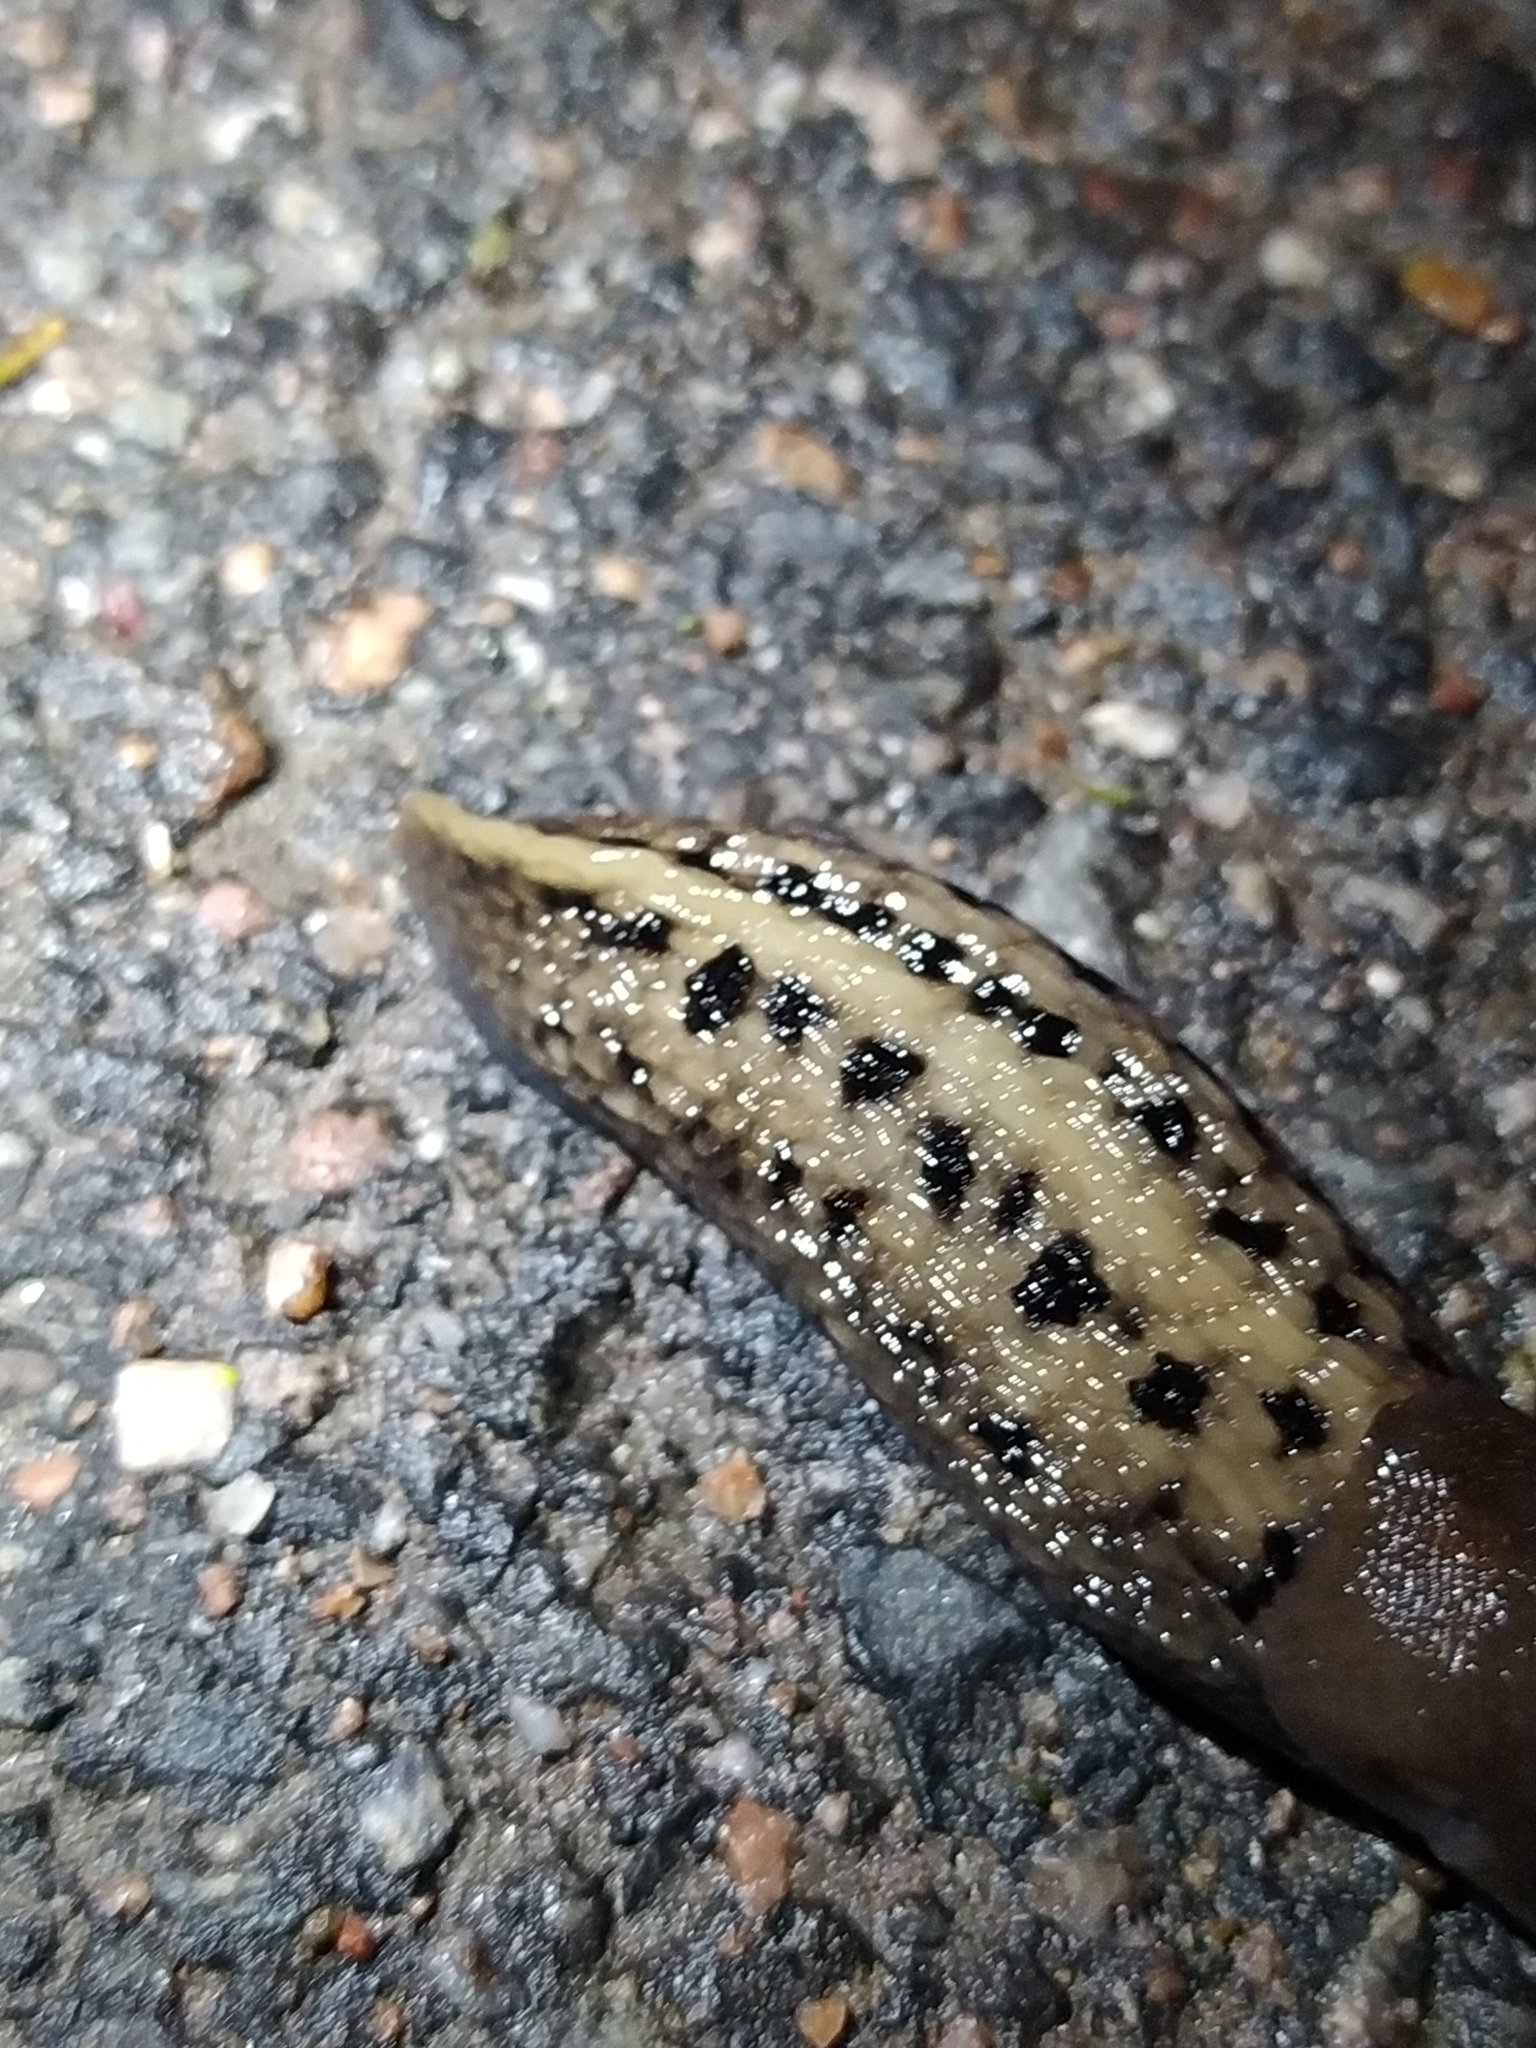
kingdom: Animalia
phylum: Mollusca
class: Gastropoda
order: Stylommatophora
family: Limacidae
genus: Limax
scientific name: Limax cinereoniger
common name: Ash-black slug
